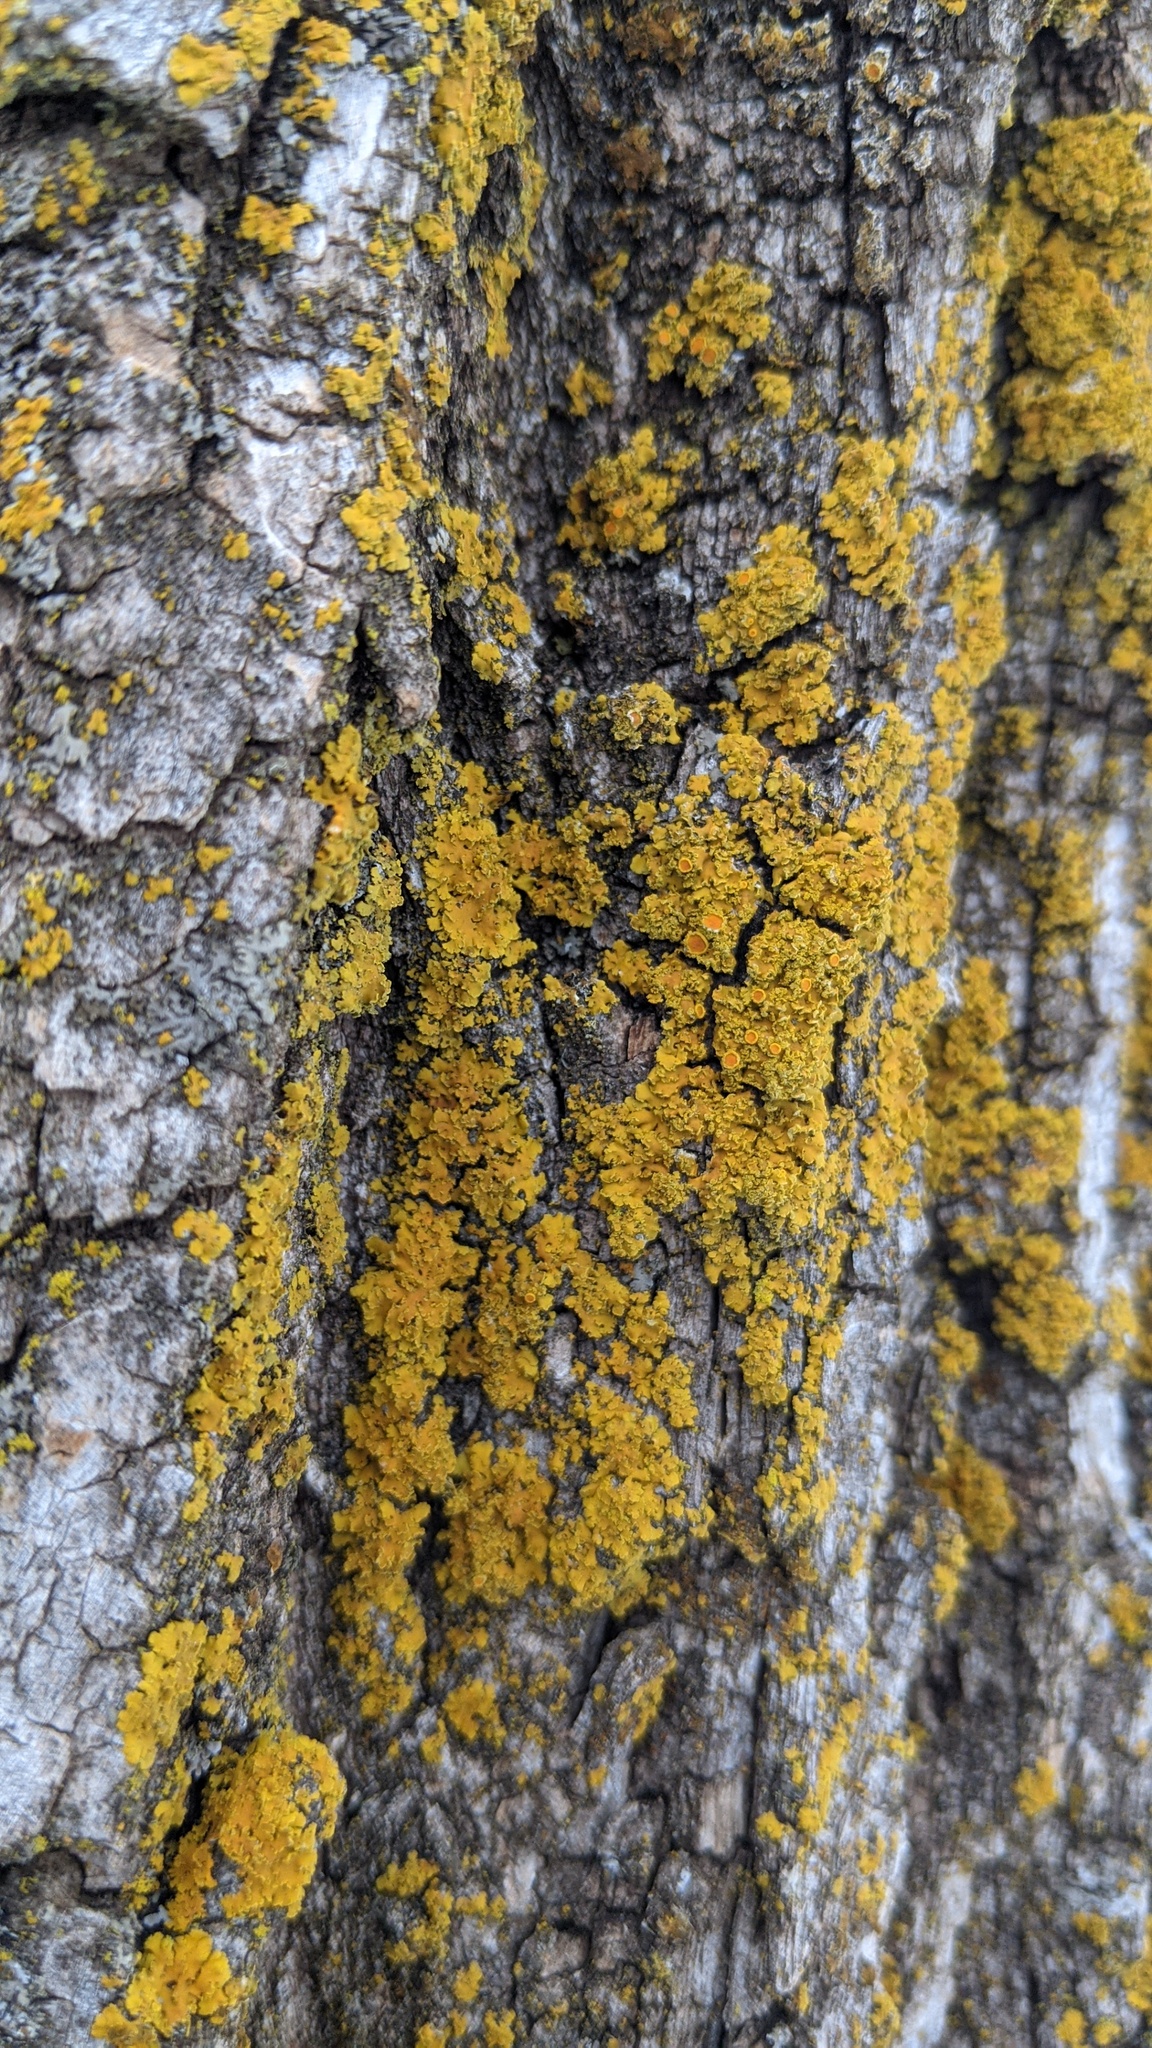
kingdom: Fungi
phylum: Ascomycota
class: Lecanoromycetes
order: Teloschistales
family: Teloschistaceae
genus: Xanthoria
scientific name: Xanthoria ulophyllodes
